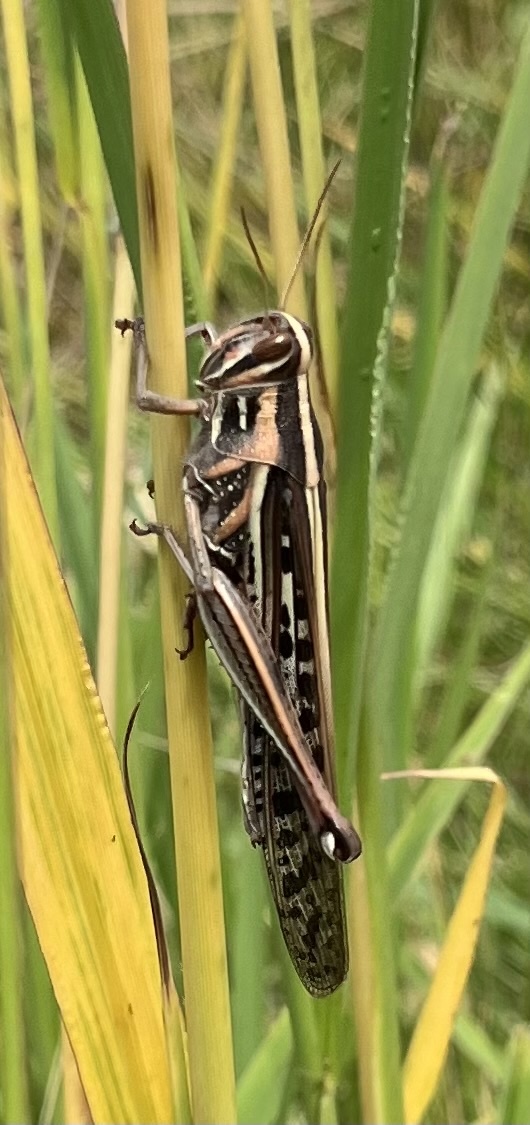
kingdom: Animalia
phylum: Arthropoda
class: Insecta
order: Orthoptera
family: Acrididae
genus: Schistocerca
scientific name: Schistocerca americana
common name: American bird locust
